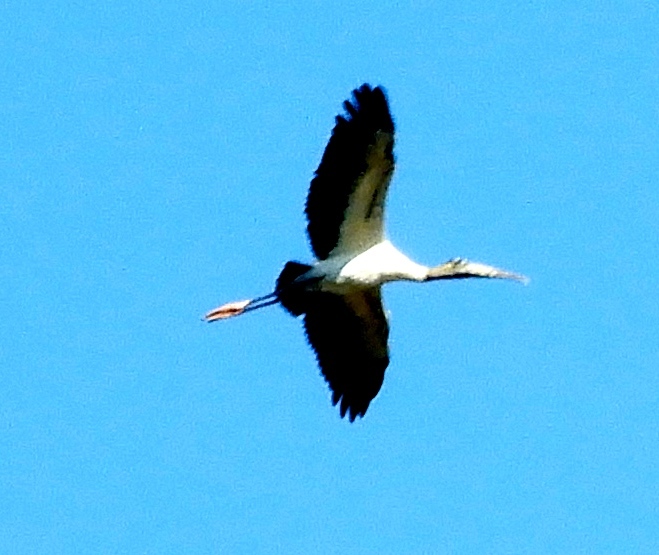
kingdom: Animalia
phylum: Chordata
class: Aves
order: Ciconiiformes
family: Ciconiidae
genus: Mycteria
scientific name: Mycteria americana
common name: Wood stork
